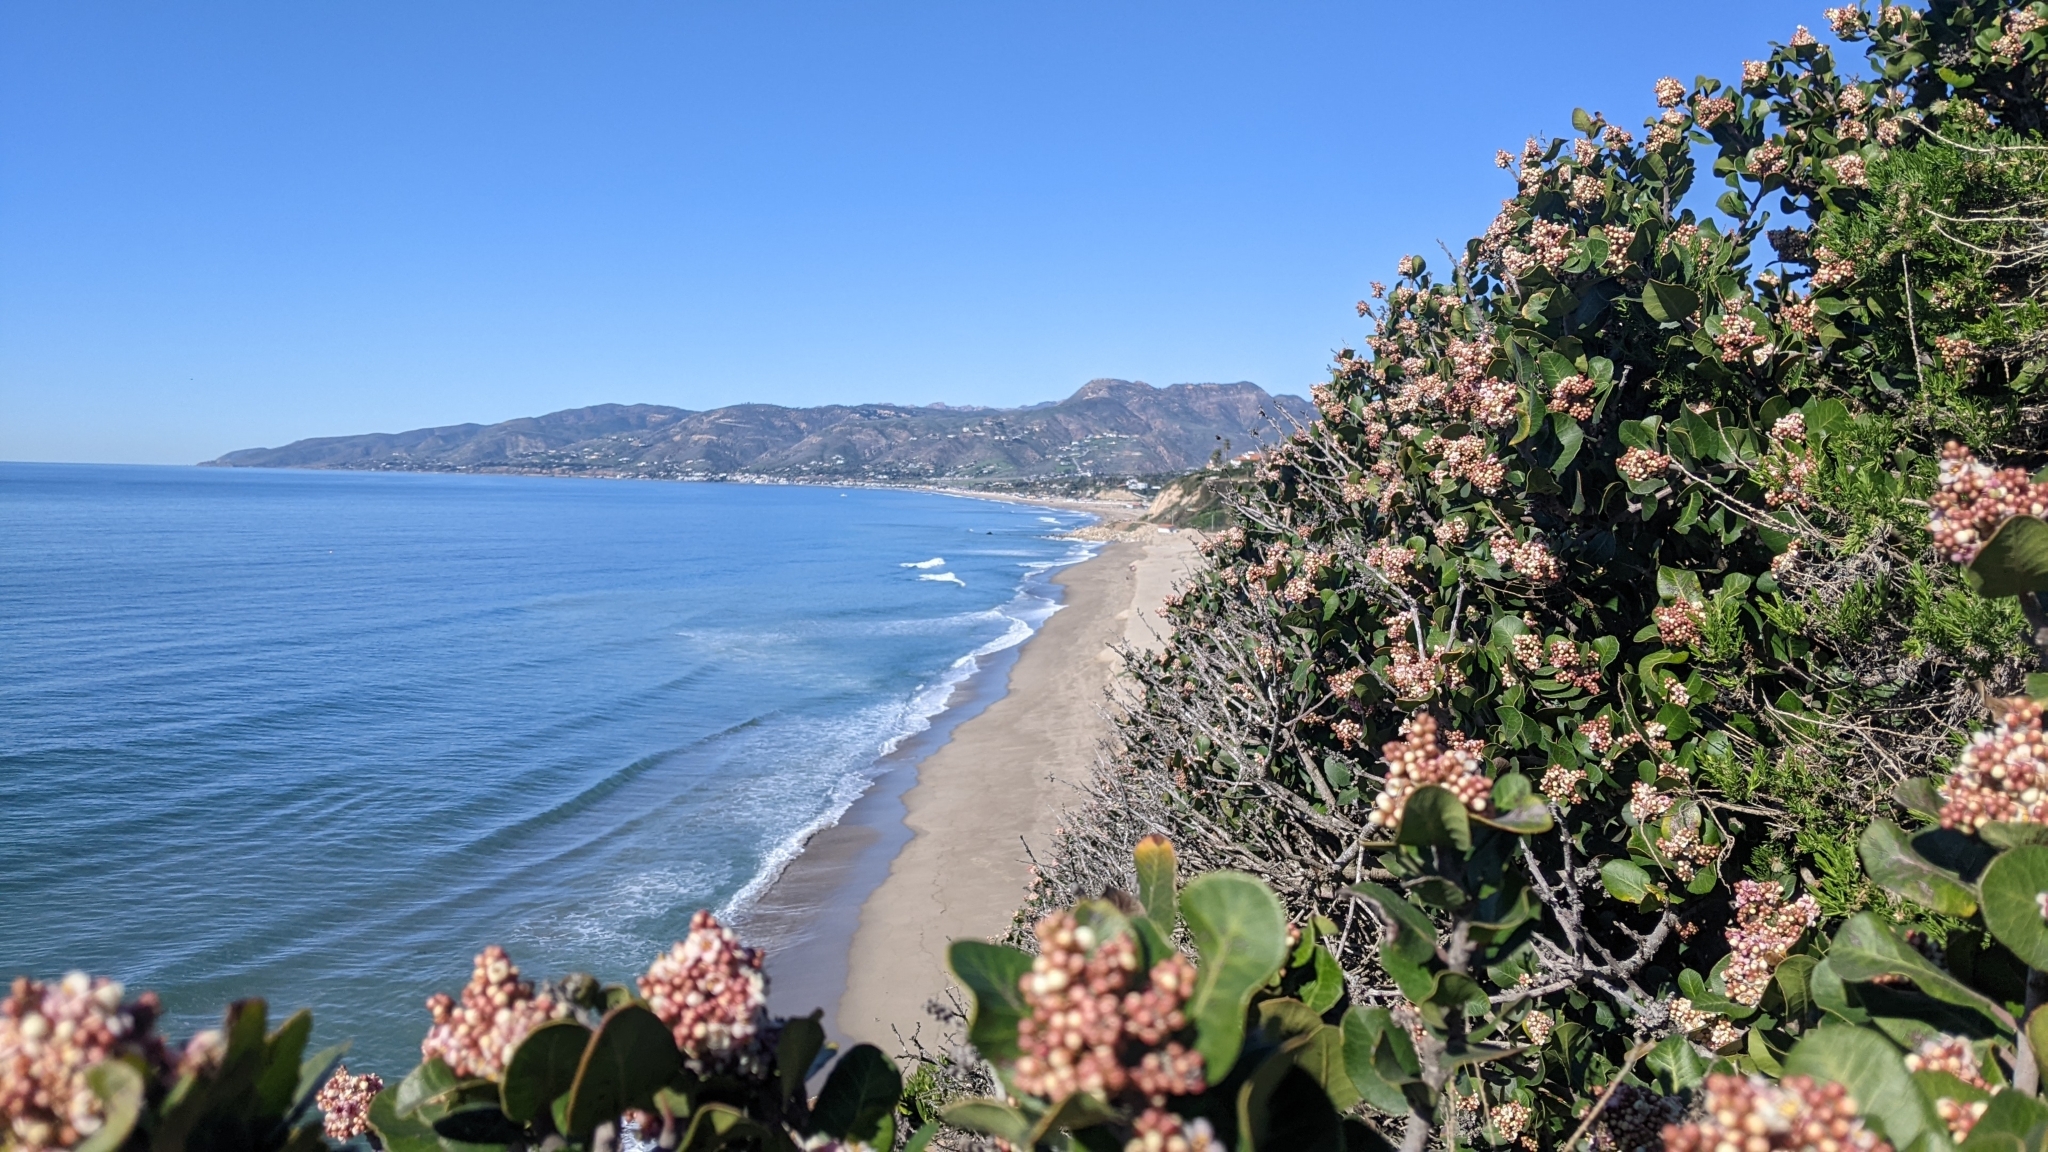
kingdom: Plantae
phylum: Tracheophyta
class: Magnoliopsida
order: Sapindales
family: Anacardiaceae
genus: Rhus
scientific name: Rhus integrifolia
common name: Lemonade sumac
